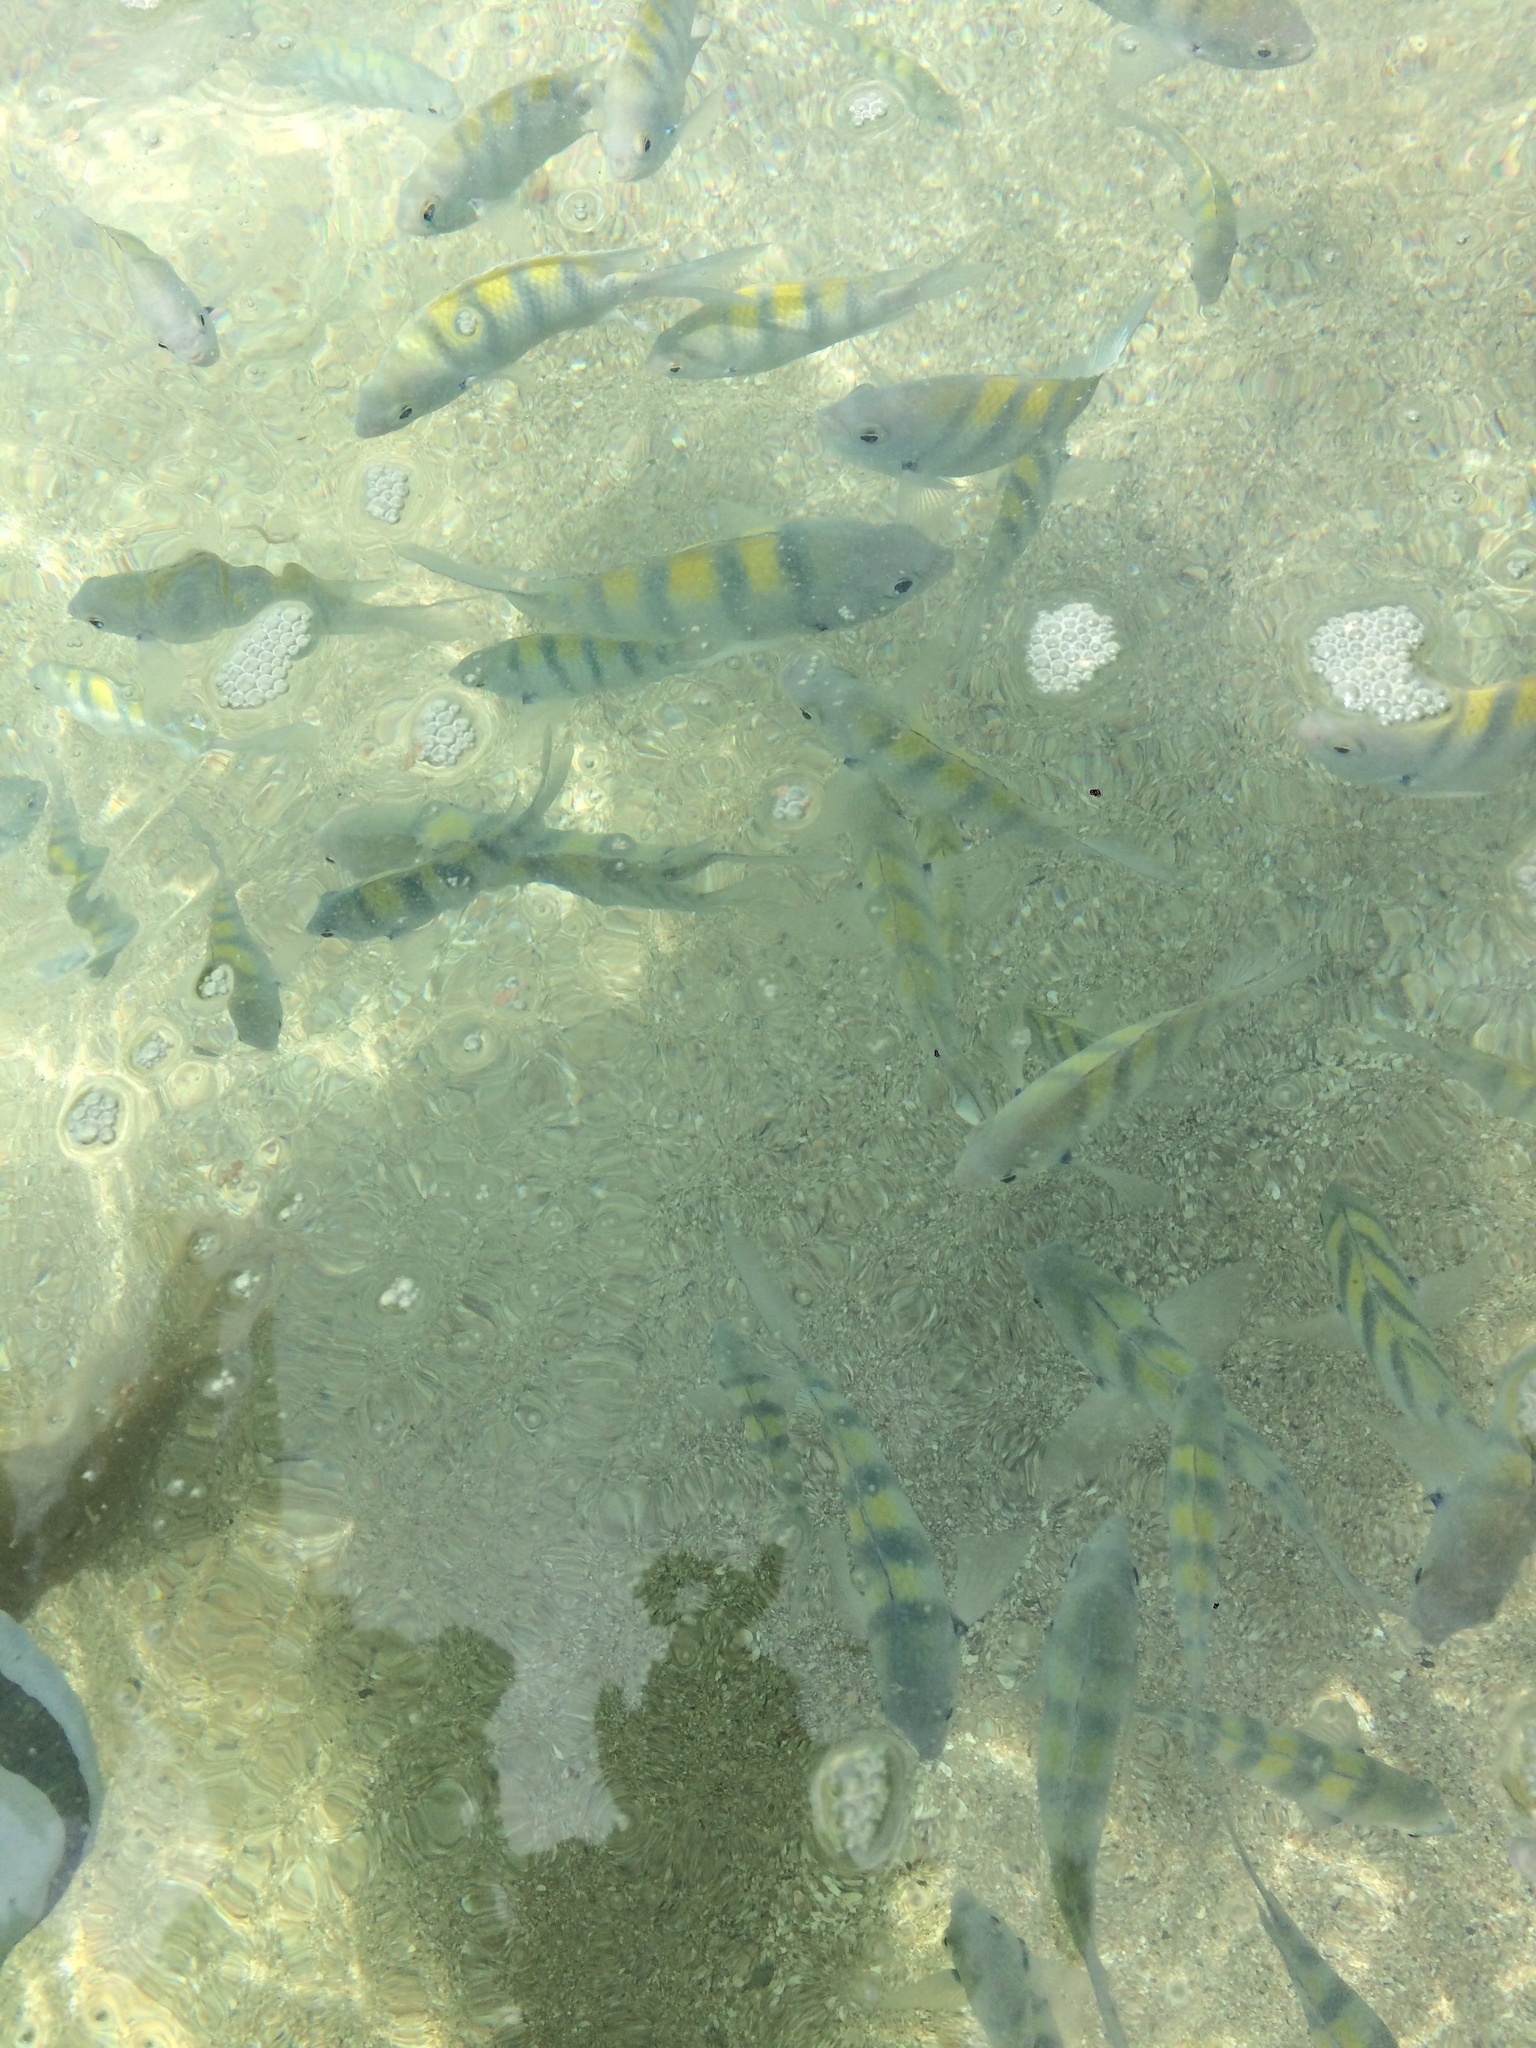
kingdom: Animalia
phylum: Chordata
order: Perciformes
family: Pomacentridae
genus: Abudefduf
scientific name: Abudefduf saxatilis
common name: Sergeant major
